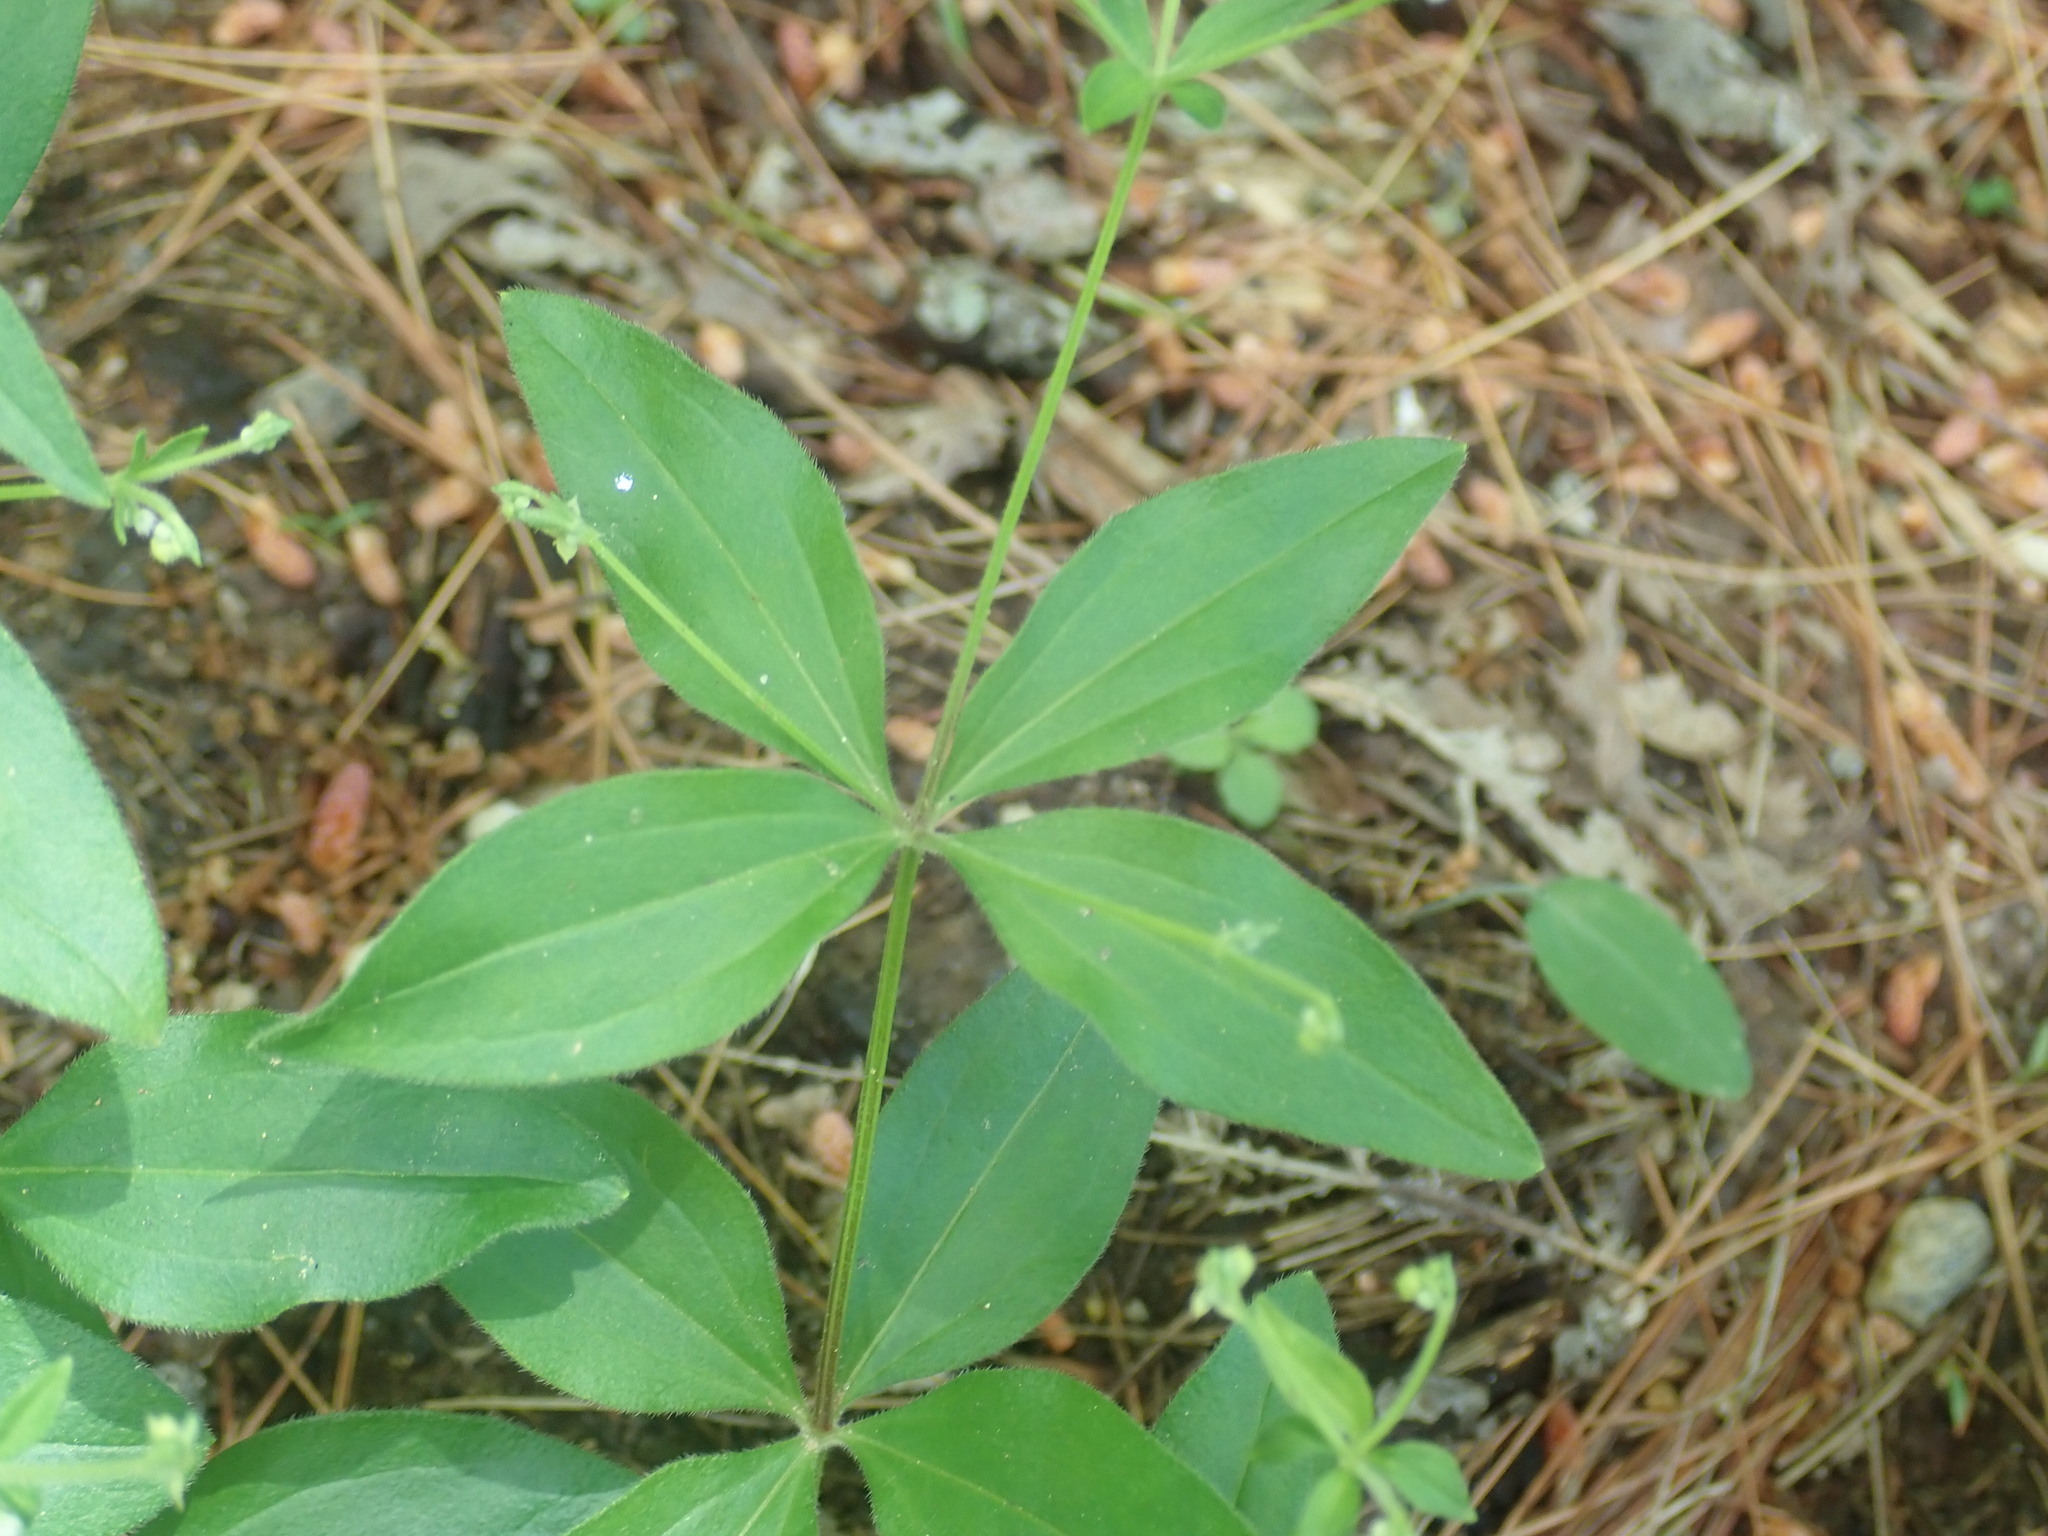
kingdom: Plantae
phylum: Tracheophyta
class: Magnoliopsida
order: Gentianales
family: Rubiaceae
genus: Galium
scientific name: Galium circaezans
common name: Forest bedstraw
